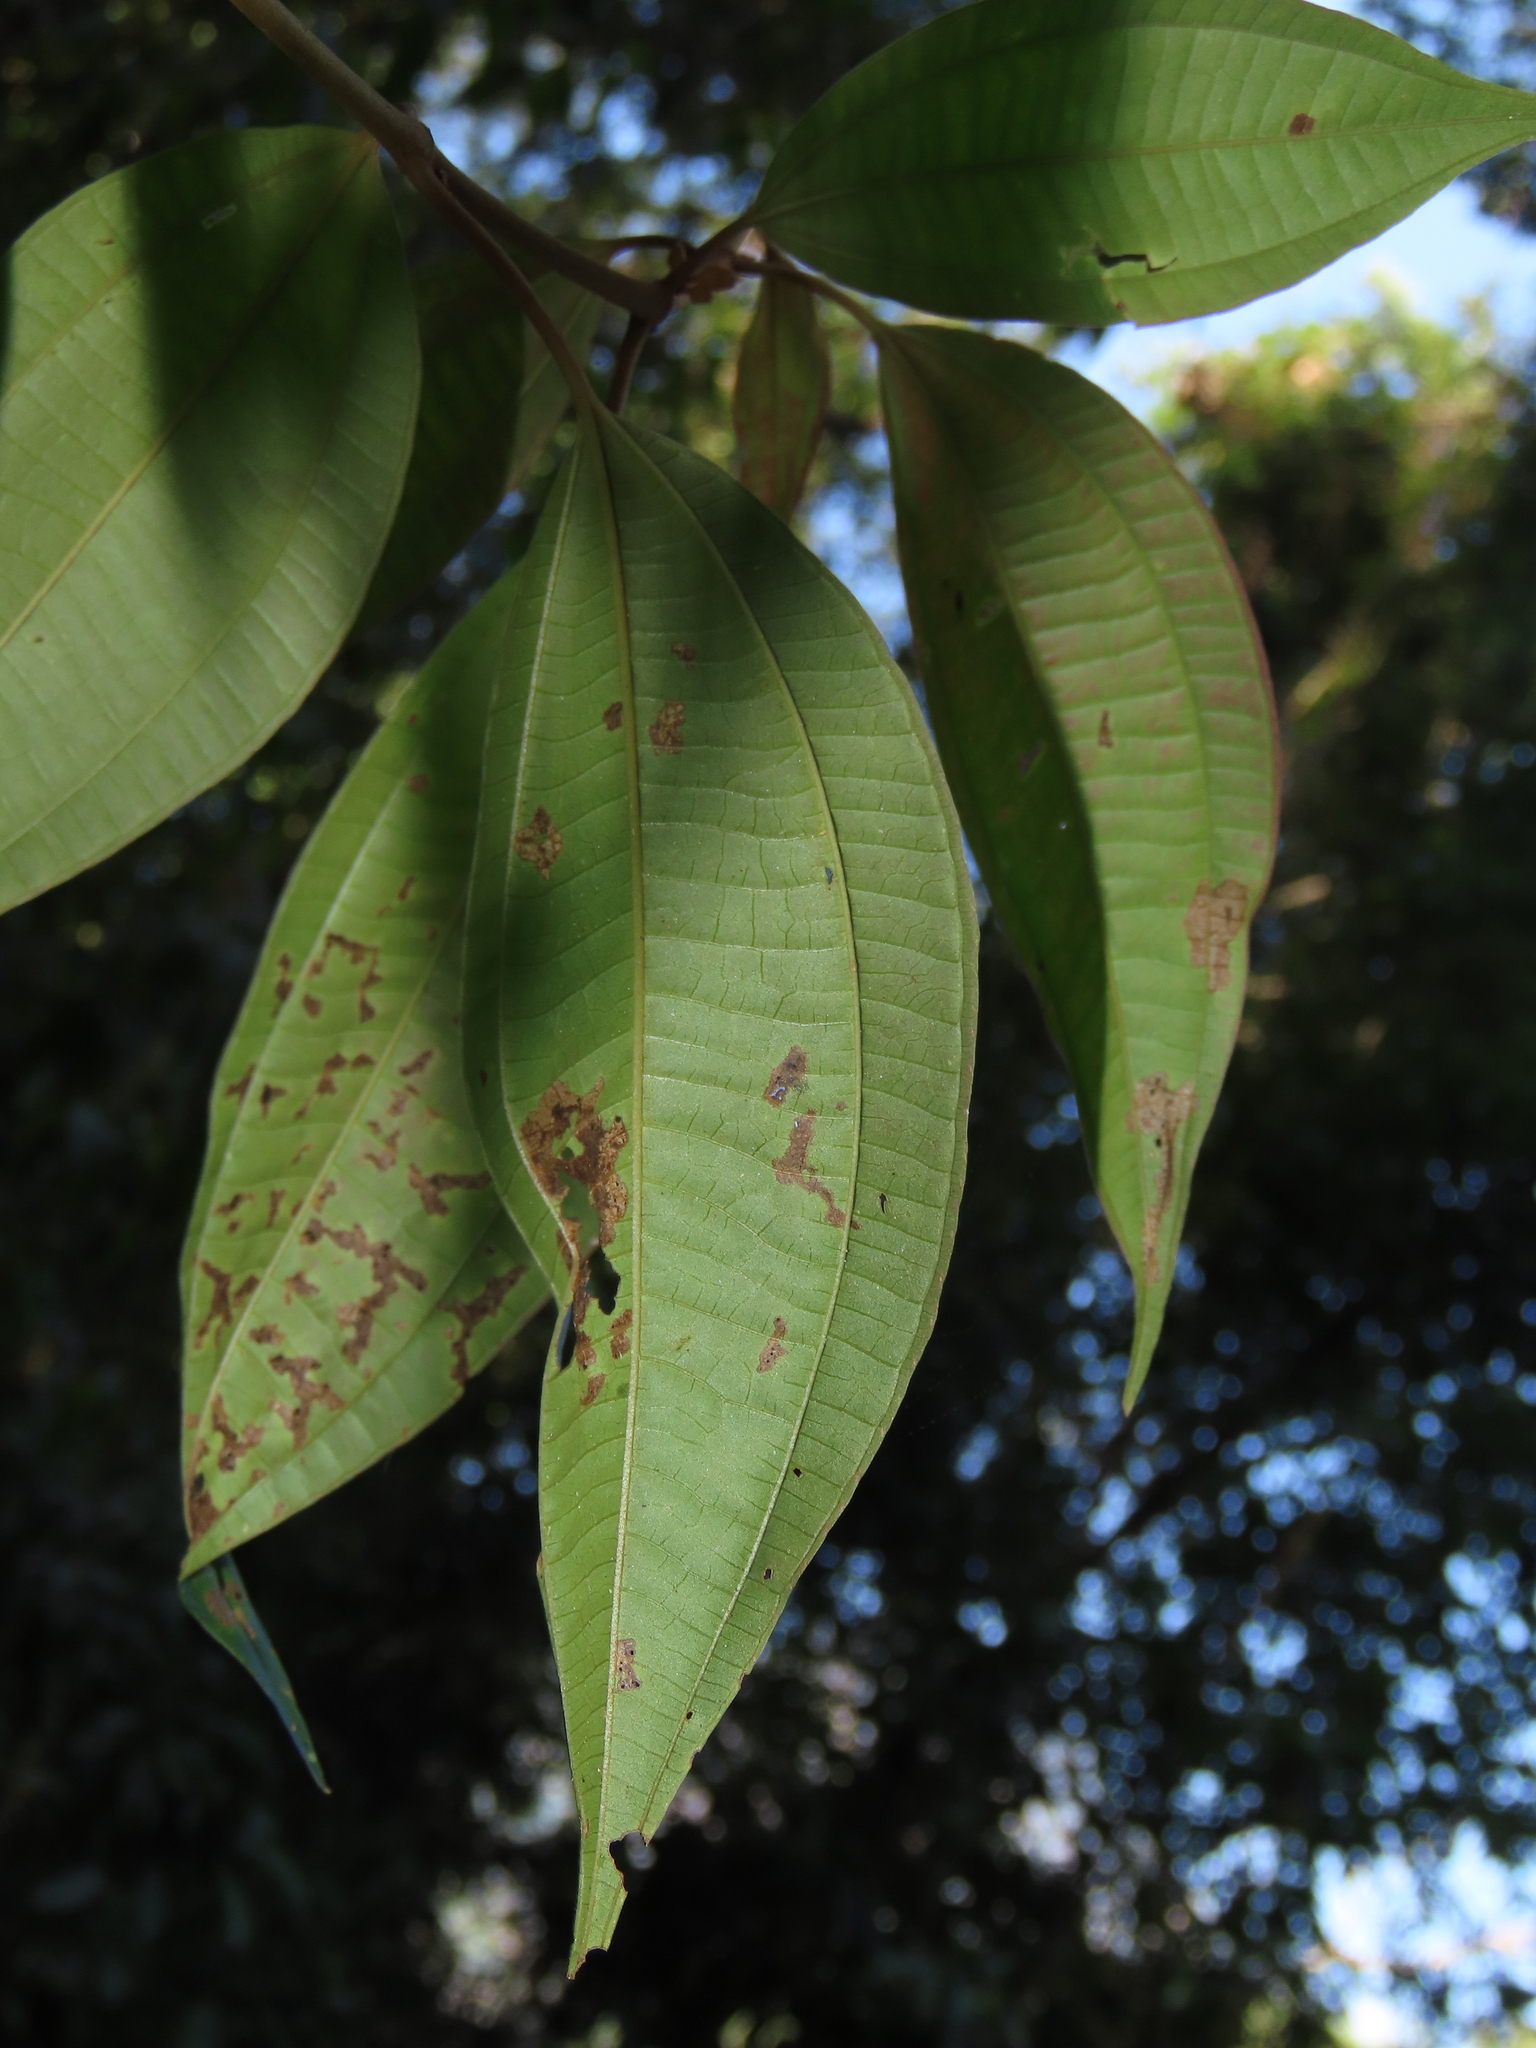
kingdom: Plantae
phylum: Tracheophyta
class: Magnoliopsida
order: Myrtales
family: Melastomataceae
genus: Blastus
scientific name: Blastus cochinchinensis
